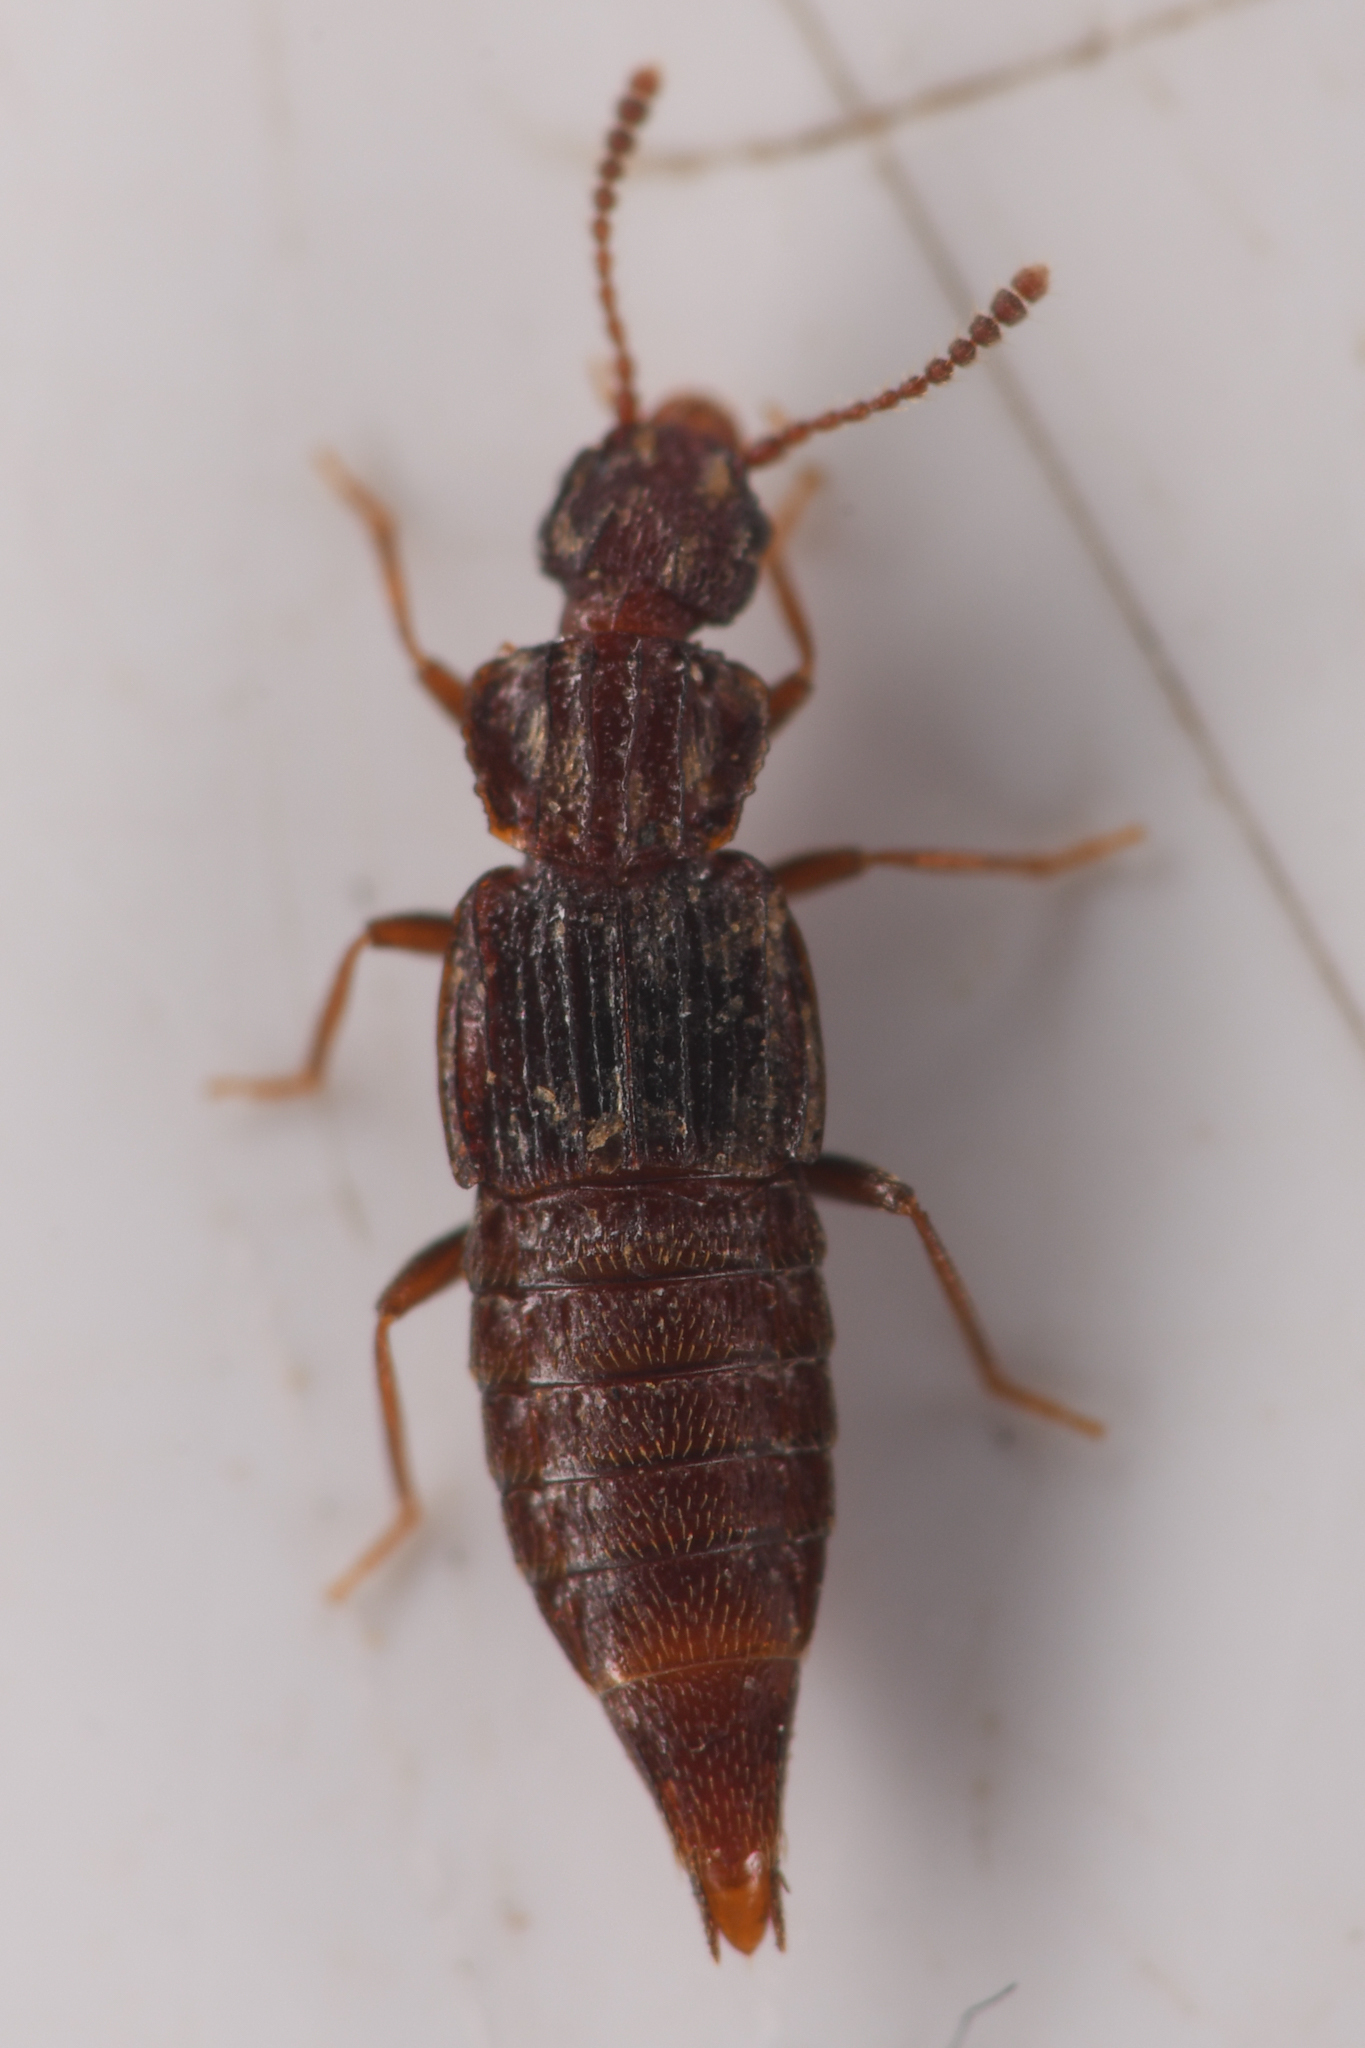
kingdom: Animalia
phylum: Arthropoda
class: Insecta
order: Coleoptera
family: Staphylinidae
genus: Nanobius
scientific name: Nanobius serricollis
